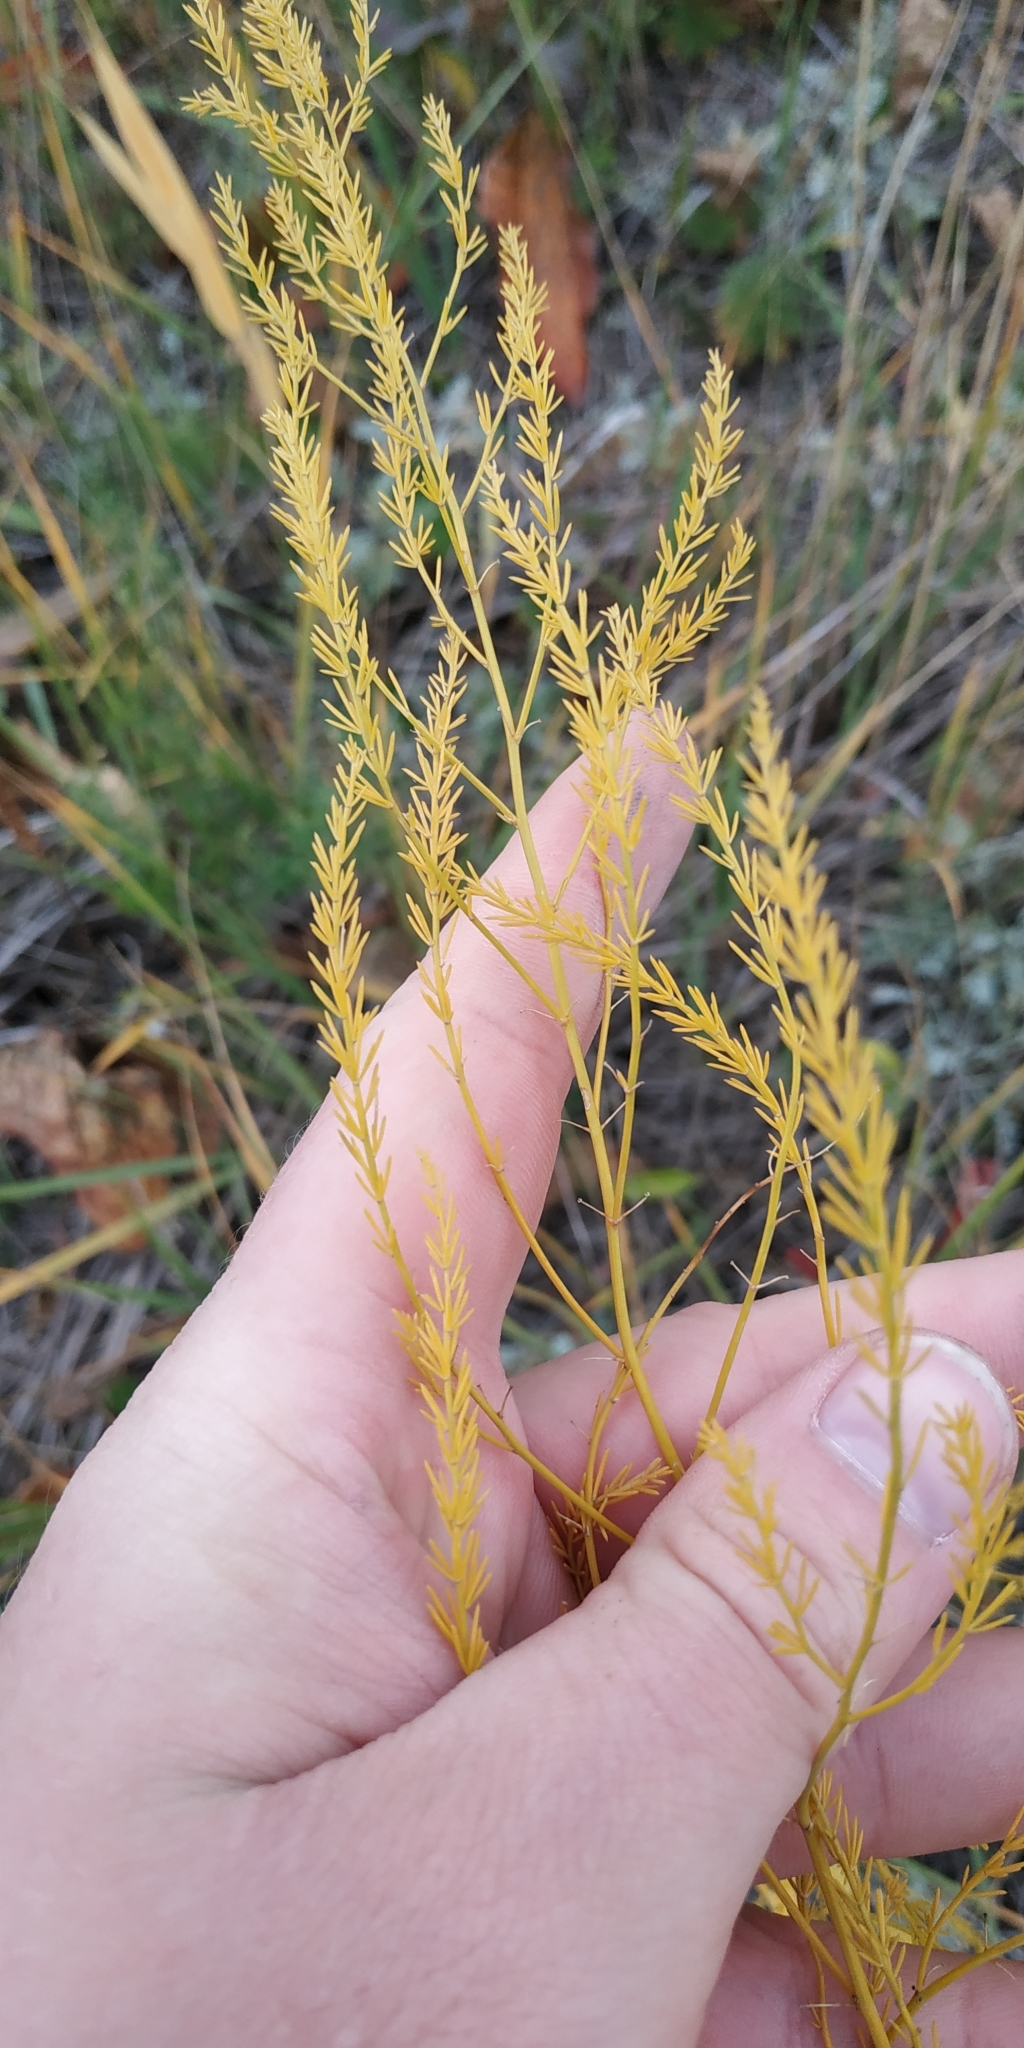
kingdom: Plantae
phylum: Tracheophyta
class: Liliopsida
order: Asparagales
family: Asparagaceae
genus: Asparagus
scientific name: Asparagus officinalis
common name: Garden asparagus
